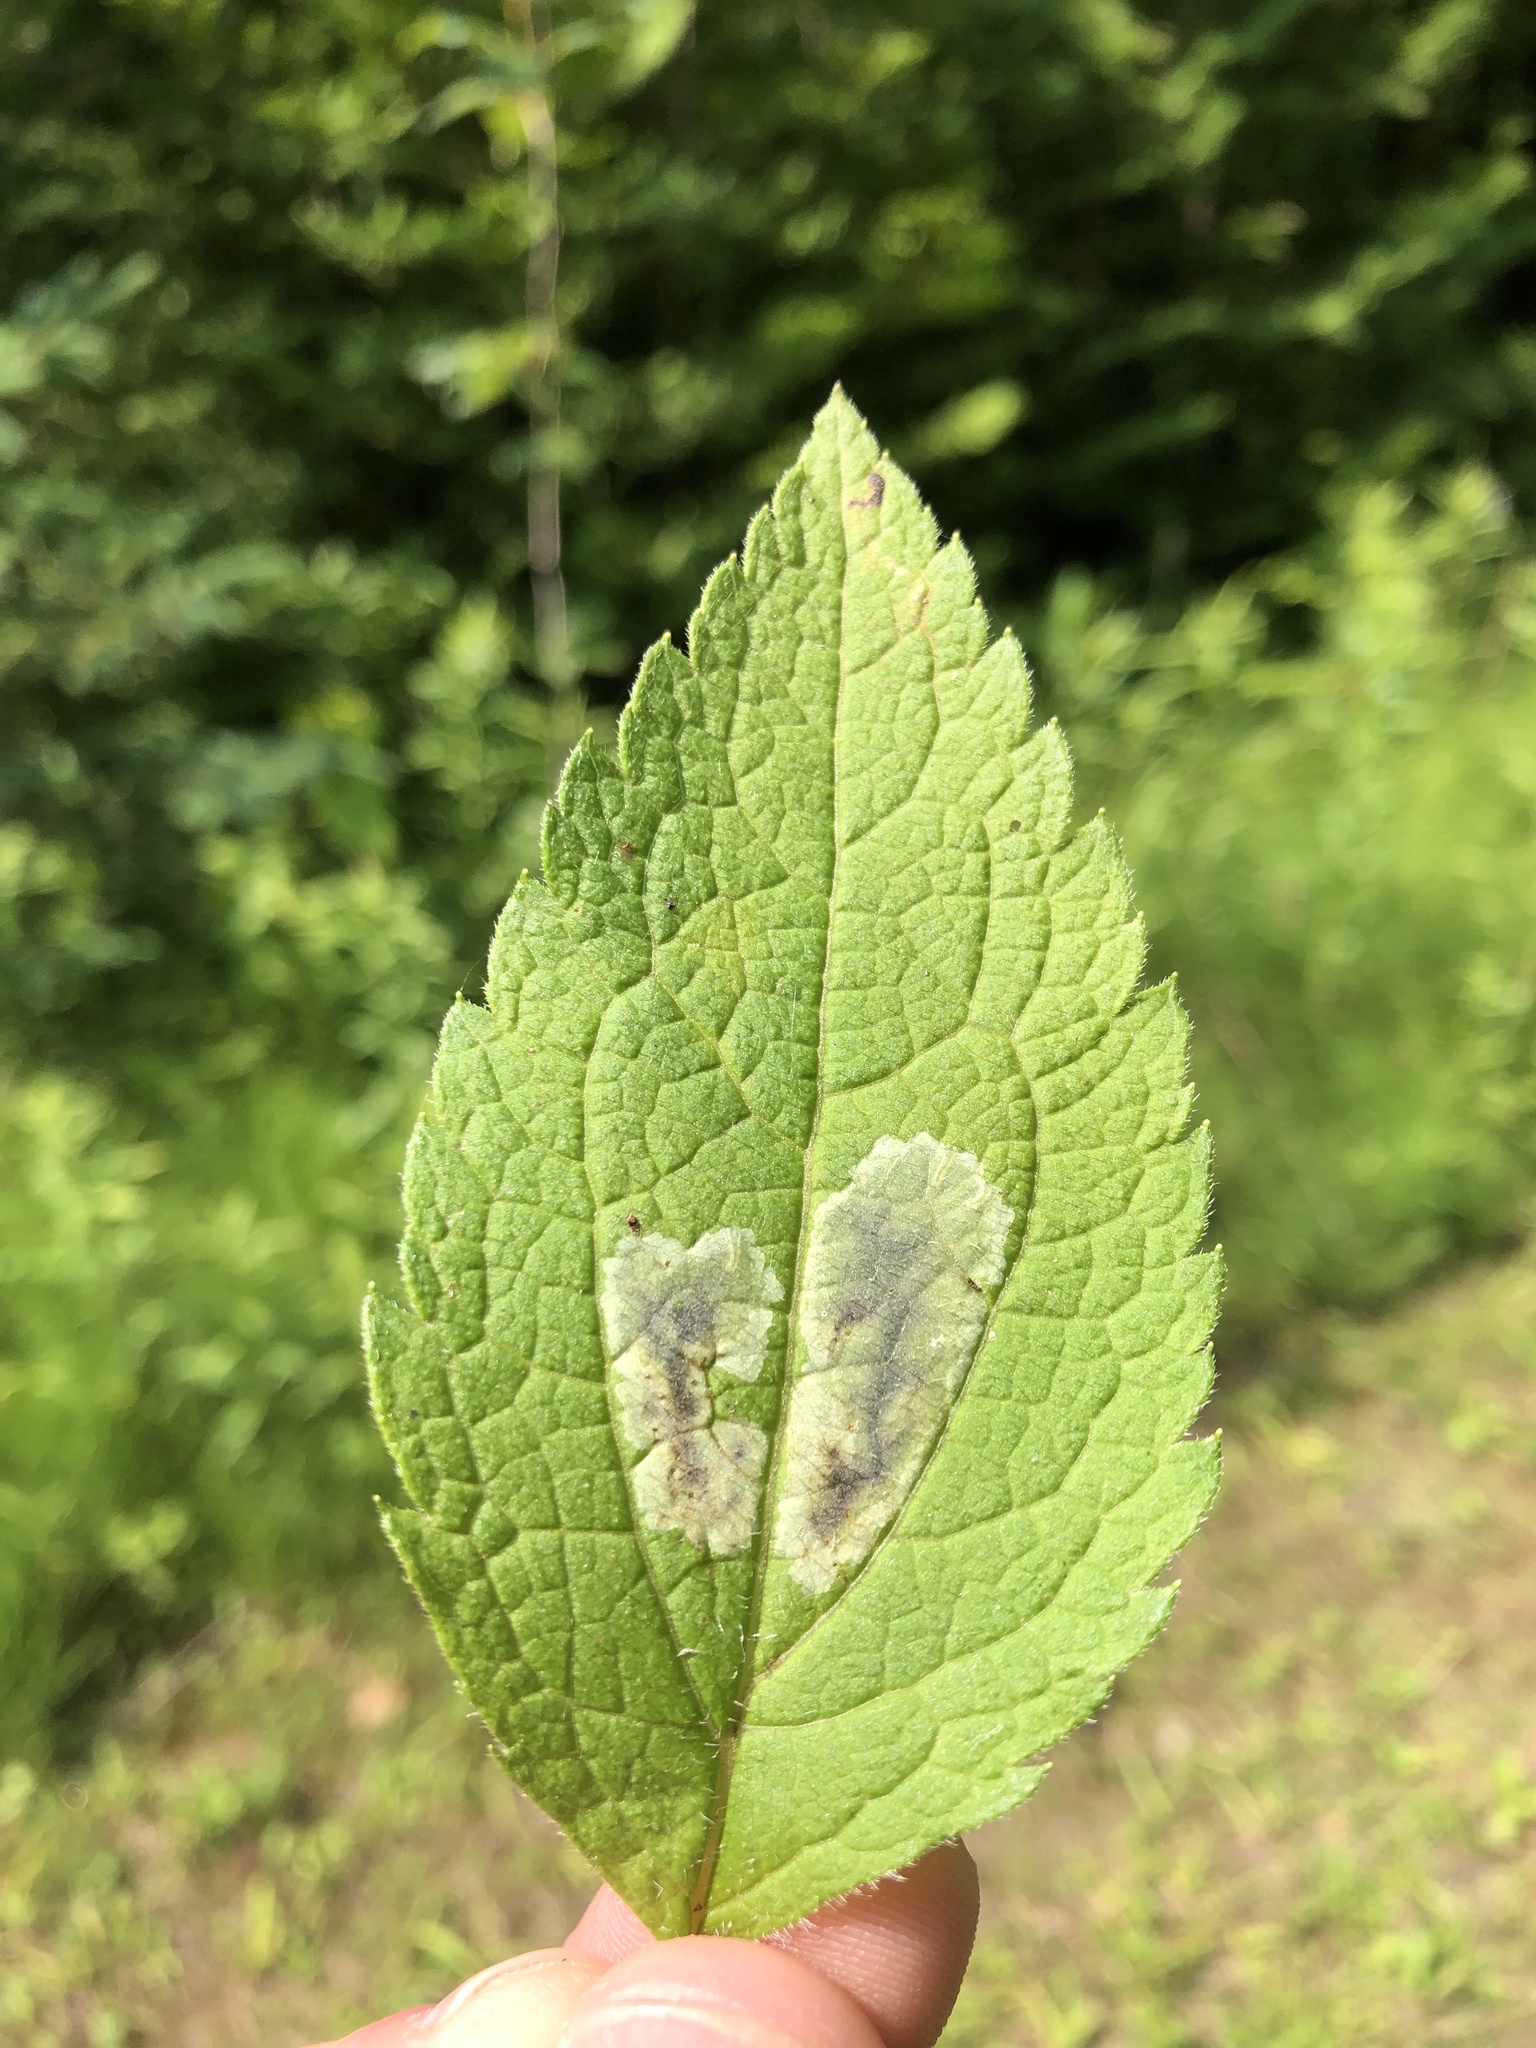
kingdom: Animalia
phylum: Arthropoda
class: Insecta
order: Diptera
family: Agromyzidae
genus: Calycomyza
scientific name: Calycomyza flavinotum
